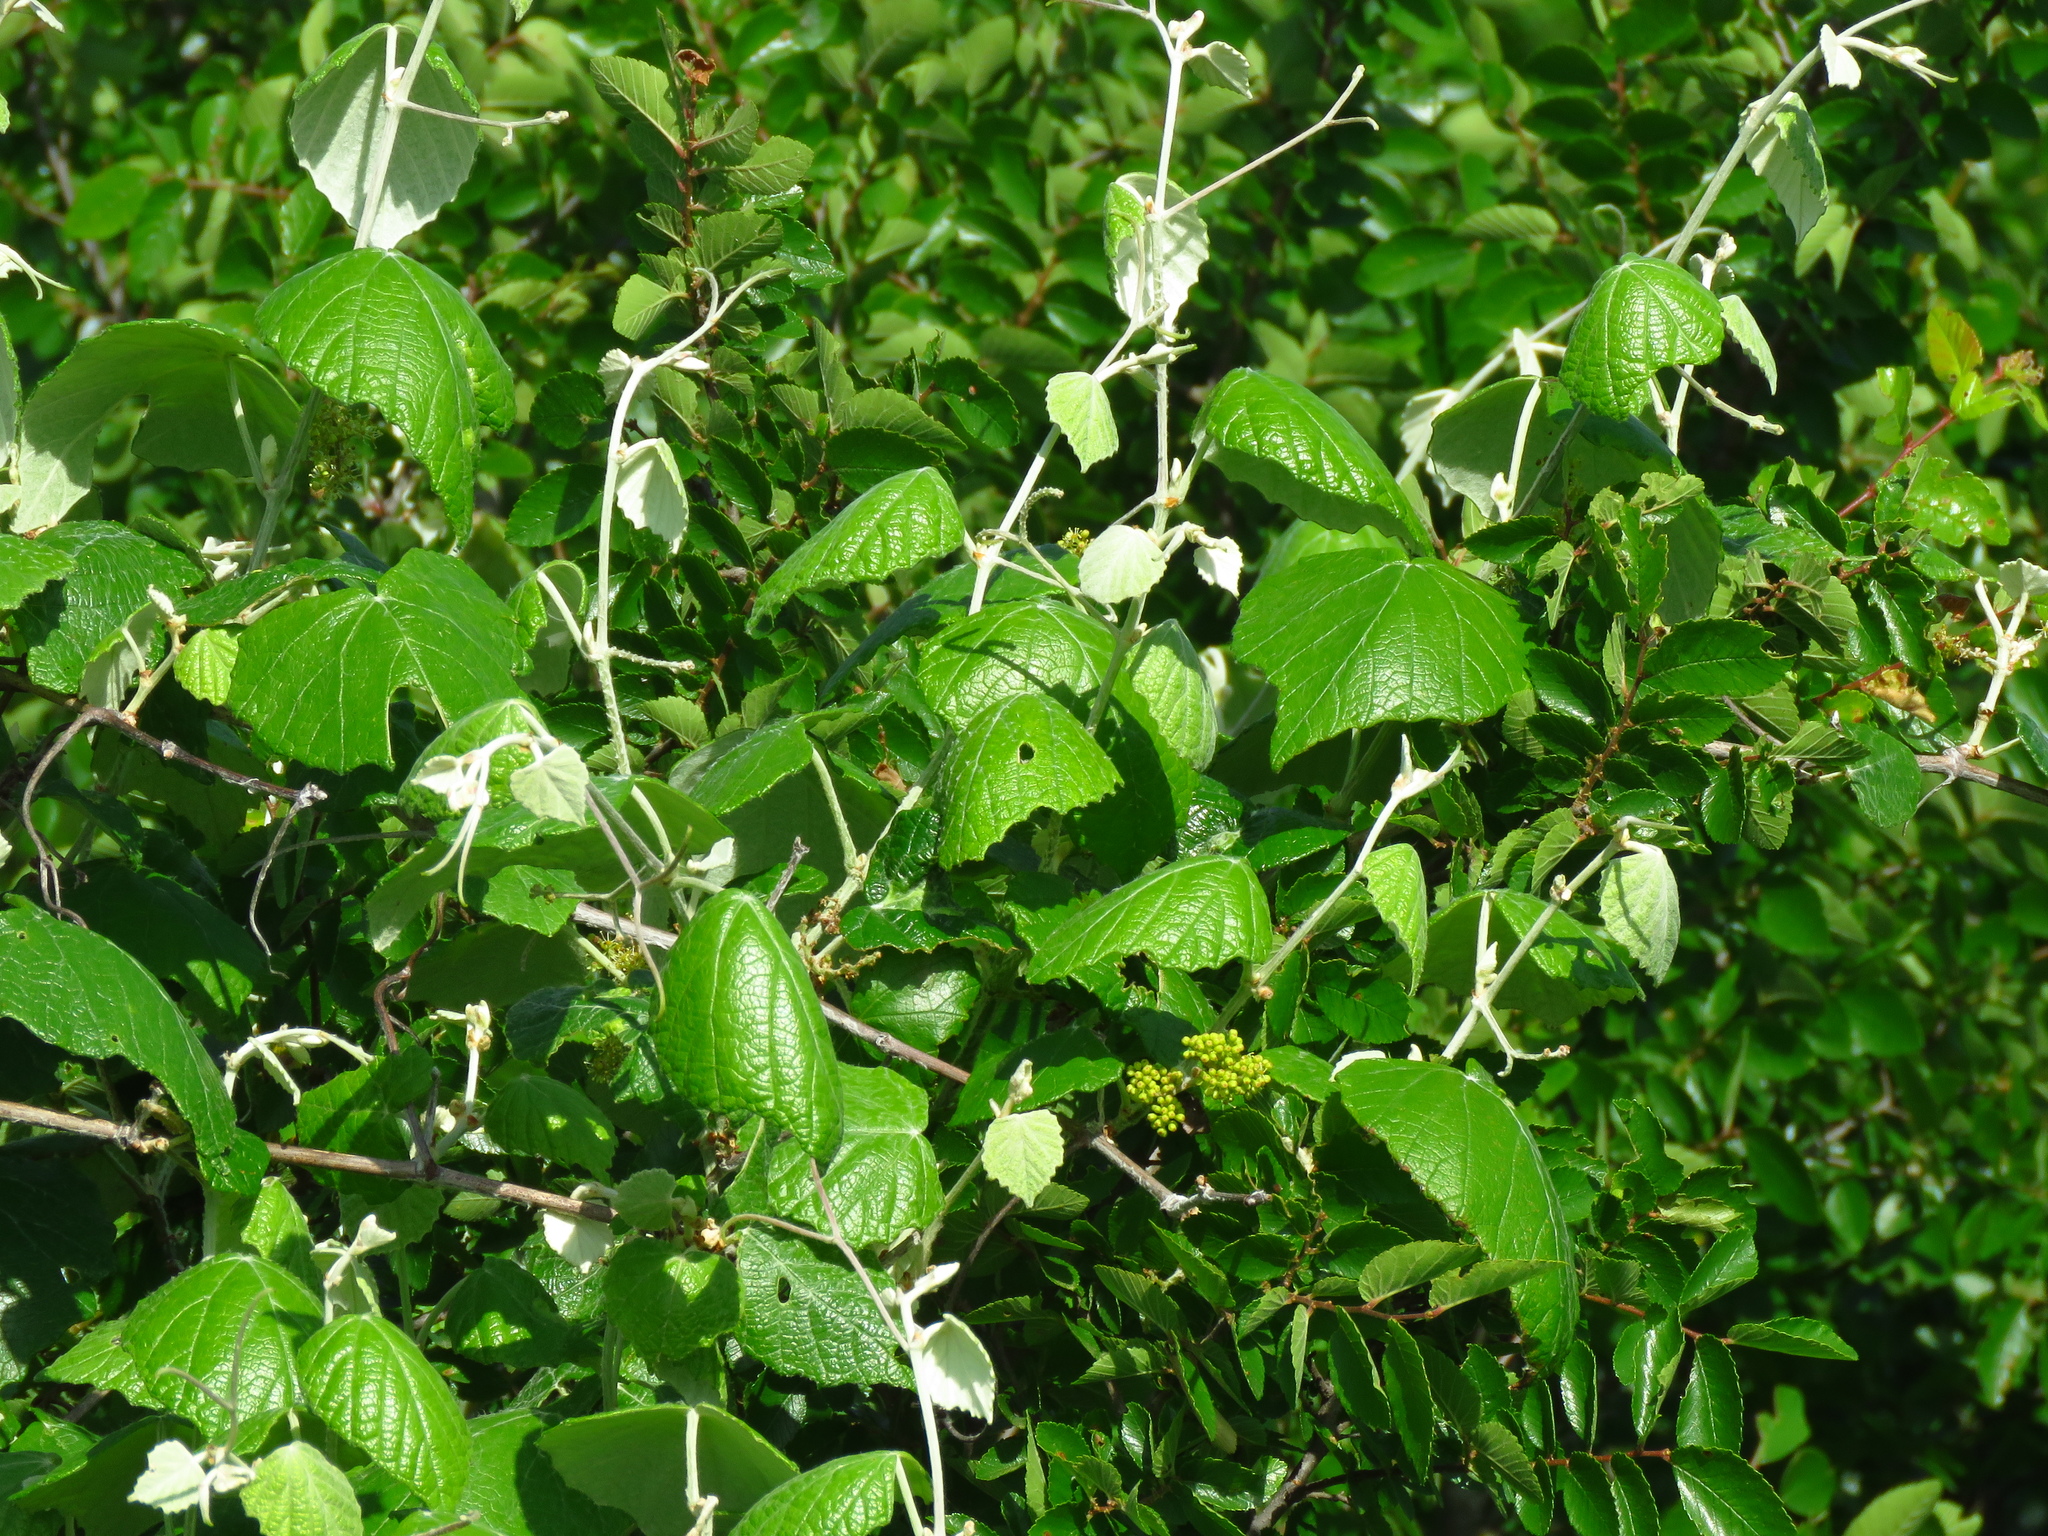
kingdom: Plantae
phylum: Tracheophyta
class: Magnoliopsida
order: Vitales
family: Vitaceae
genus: Vitis
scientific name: Vitis mustangensis
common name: Mustang grape
